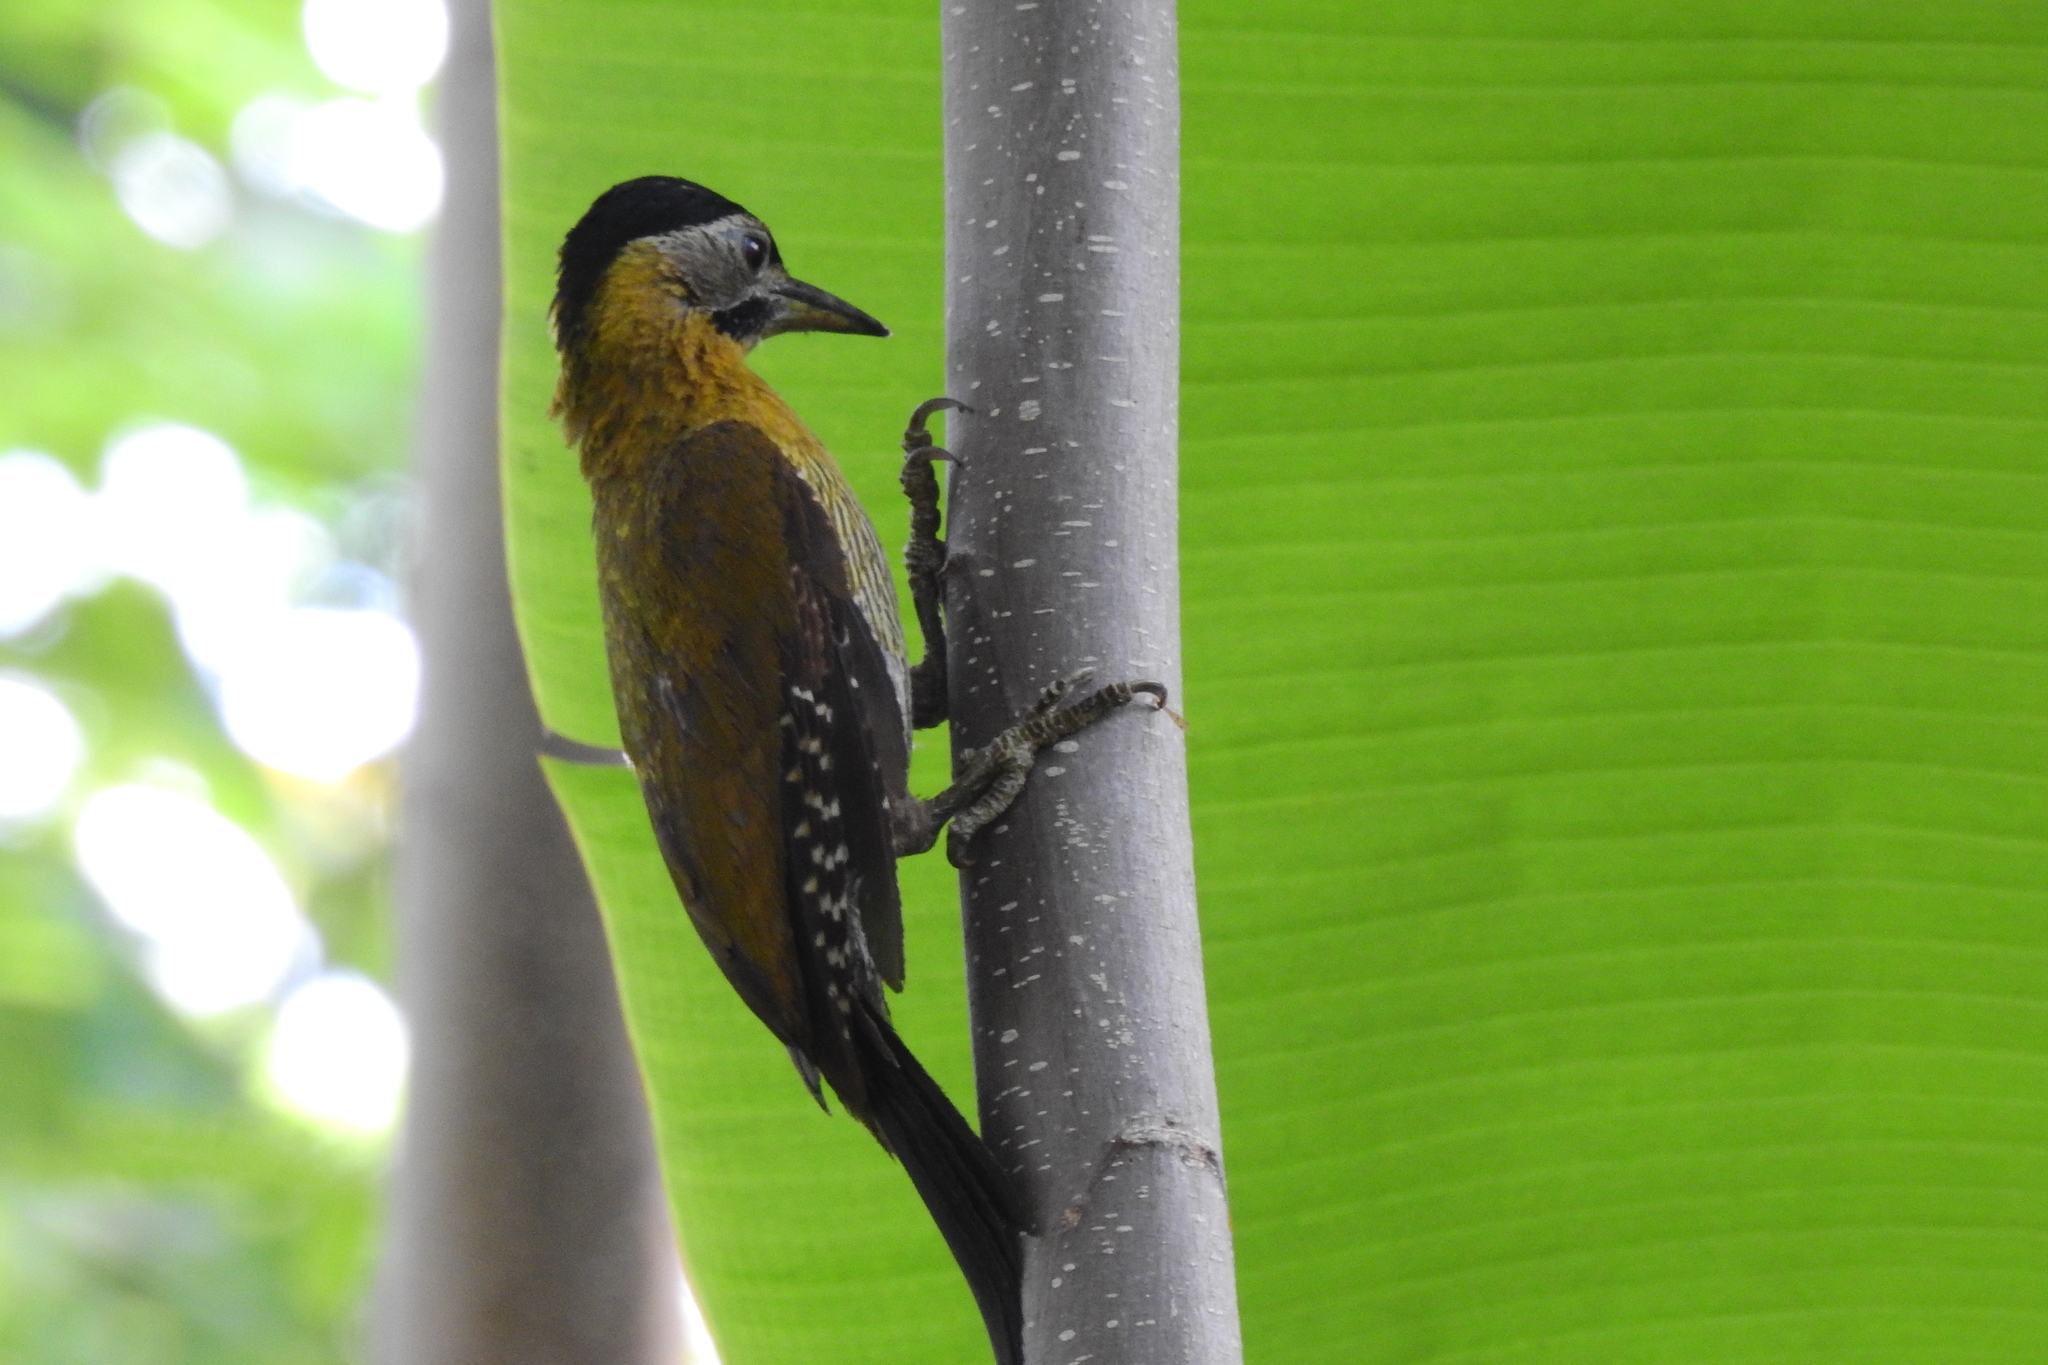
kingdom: Animalia
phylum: Chordata
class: Aves
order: Piciformes
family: Picidae
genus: Picus
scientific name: Picus vittatus
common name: Laced woodpecker
